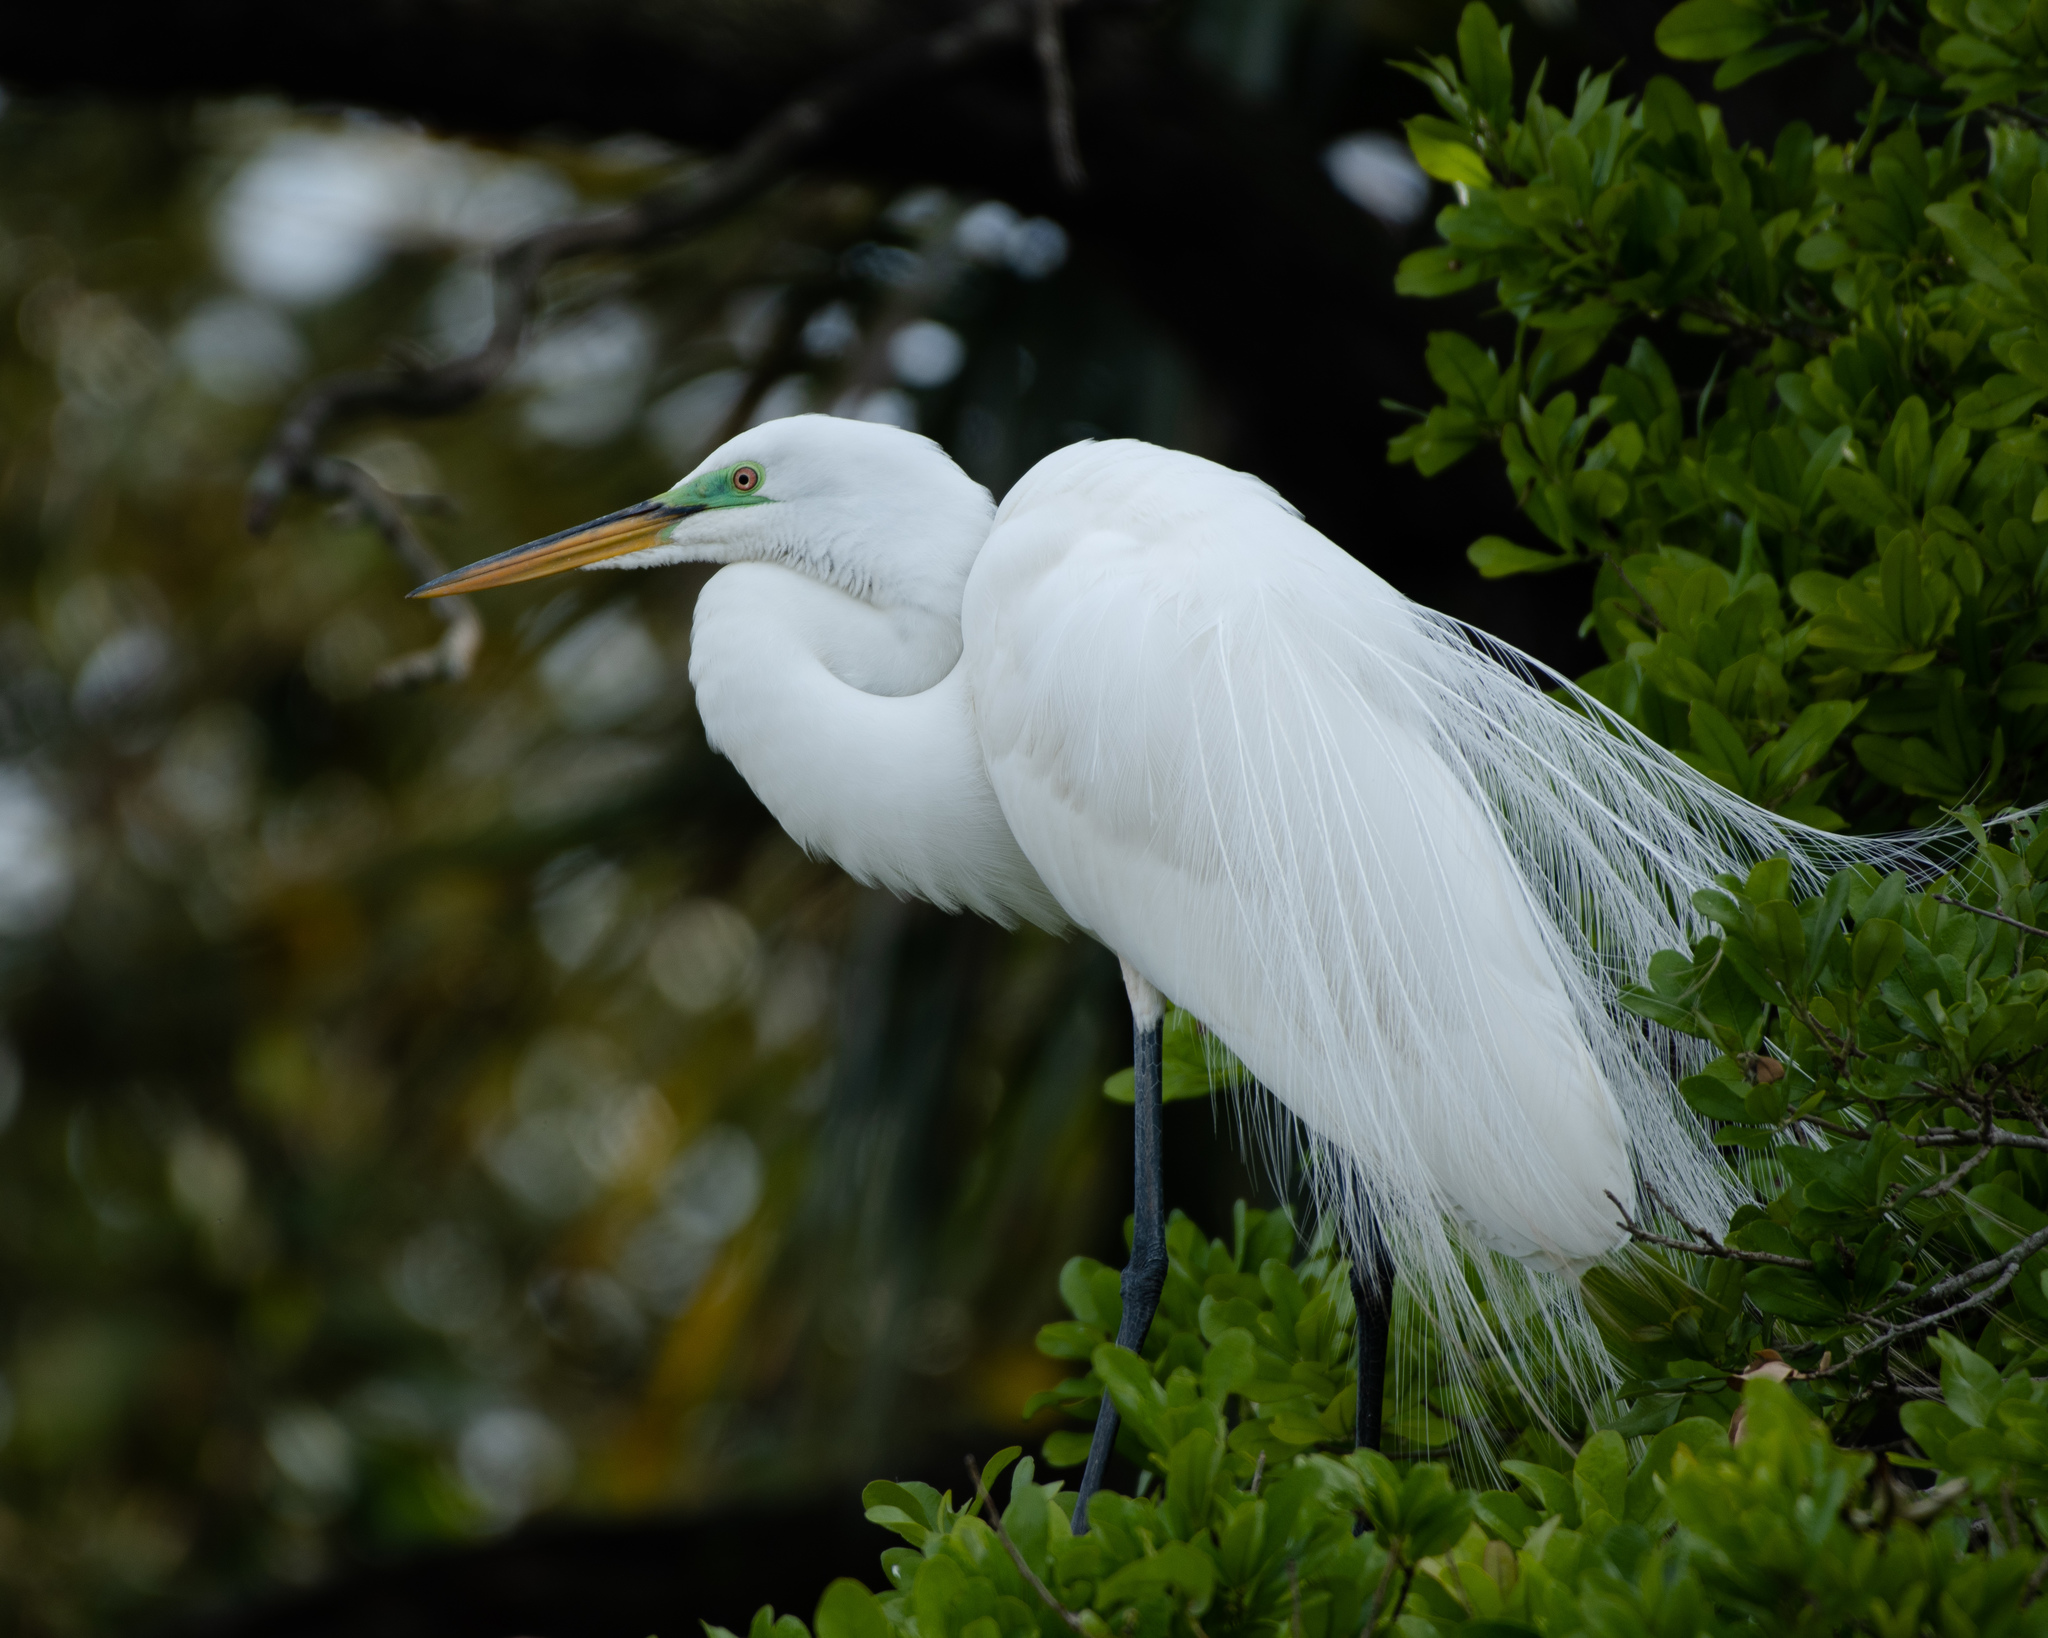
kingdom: Animalia
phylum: Chordata
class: Aves
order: Pelecaniformes
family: Ardeidae
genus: Ardea
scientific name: Ardea alba
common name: Great egret
